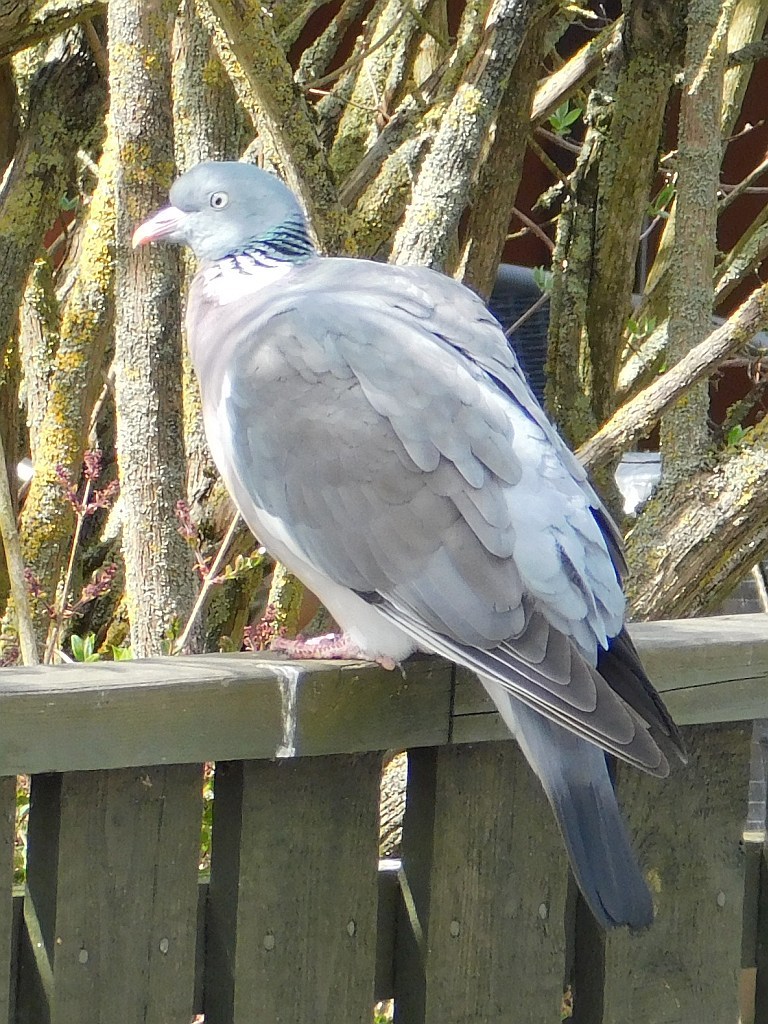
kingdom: Animalia
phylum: Chordata
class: Aves
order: Columbiformes
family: Columbidae
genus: Columba
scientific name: Columba palumbus
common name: Common wood pigeon
